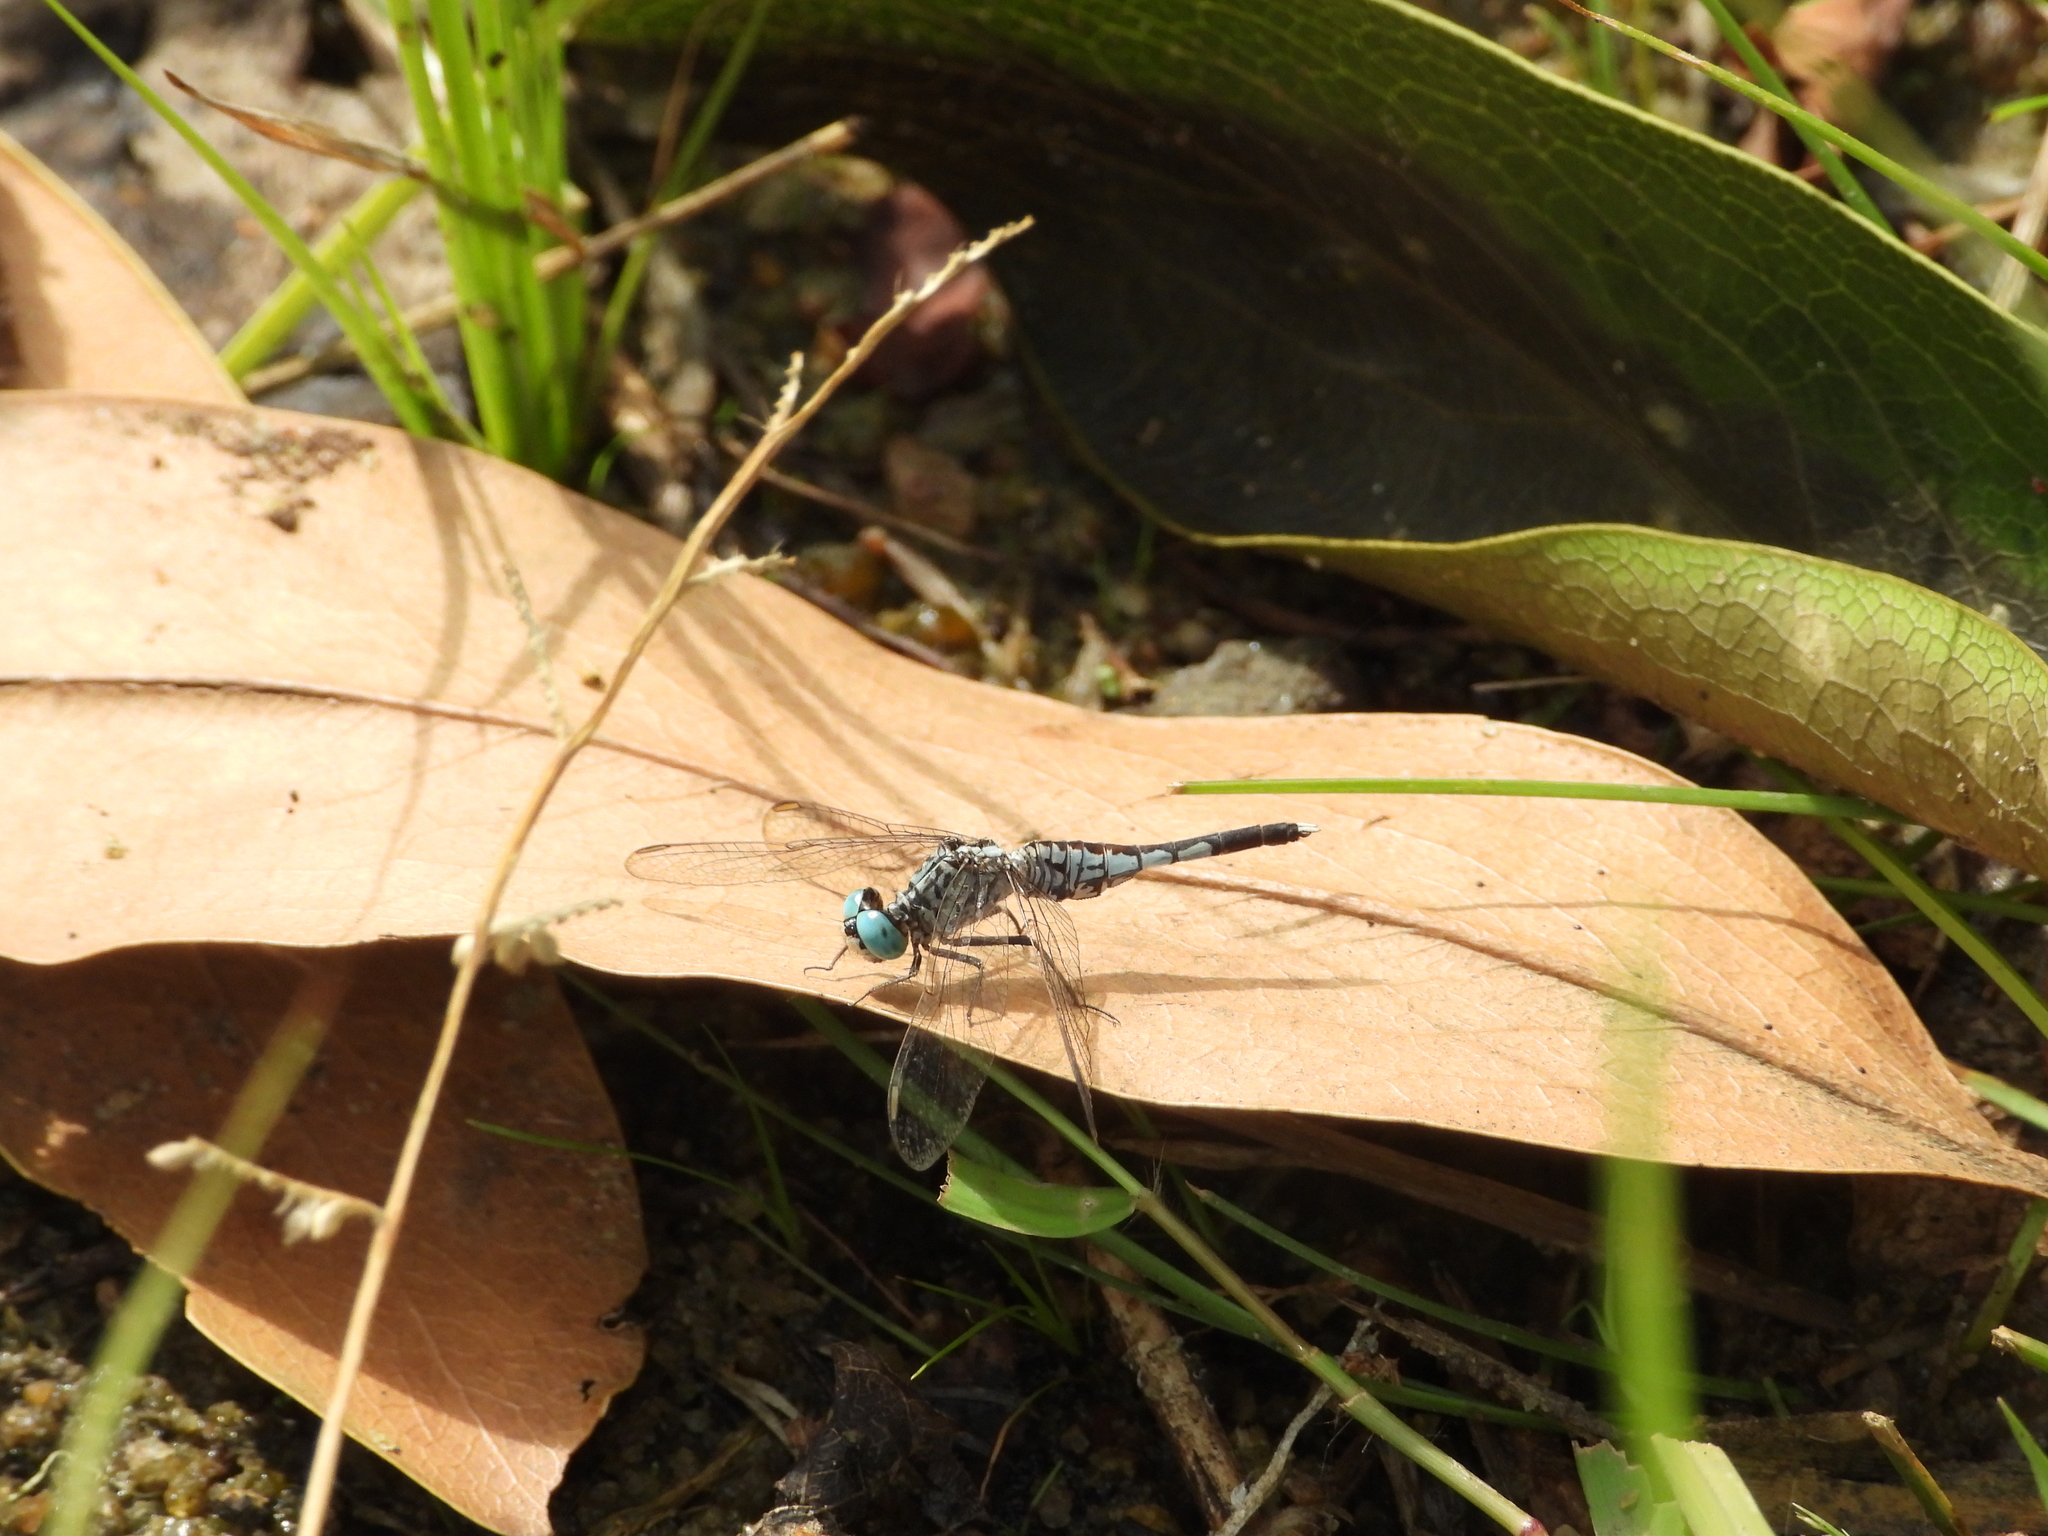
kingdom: Animalia
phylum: Arthropoda
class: Insecta
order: Odonata
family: Libellulidae
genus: Acisoma
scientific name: Acisoma panorpoides
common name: Asian pintail
